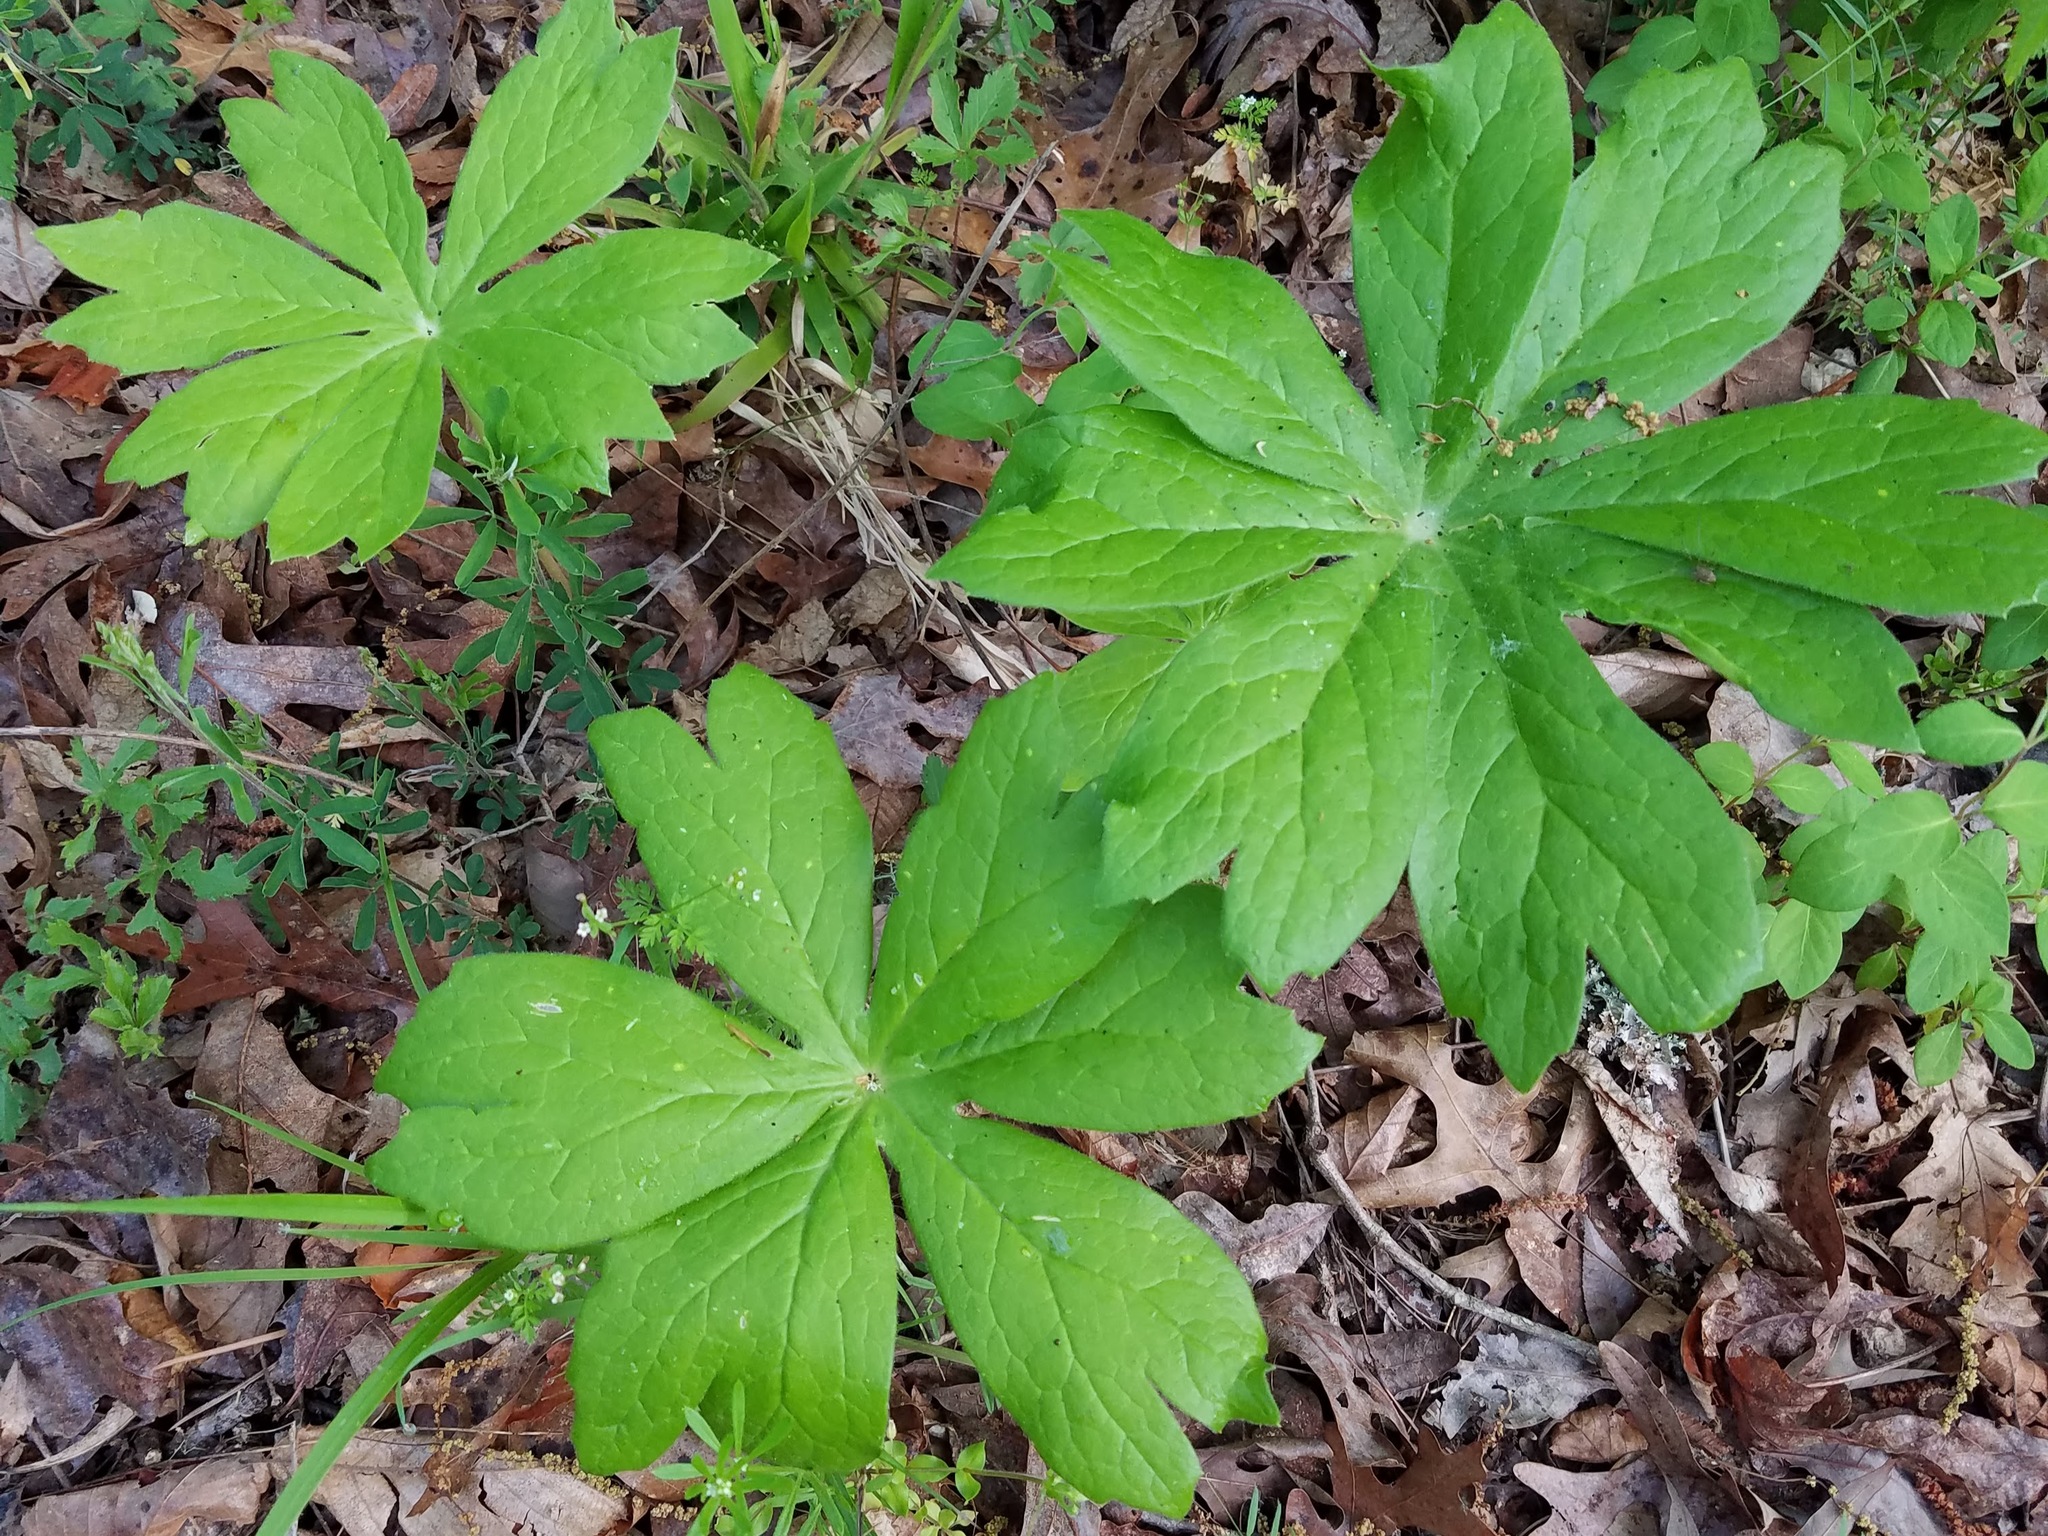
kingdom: Plantae
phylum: Tracheophyta
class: Magnoliopsida
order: Ranunculales
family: Berberidaceae
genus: Podophyllum
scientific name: Podophyllum peltatum
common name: Wild mandrake
